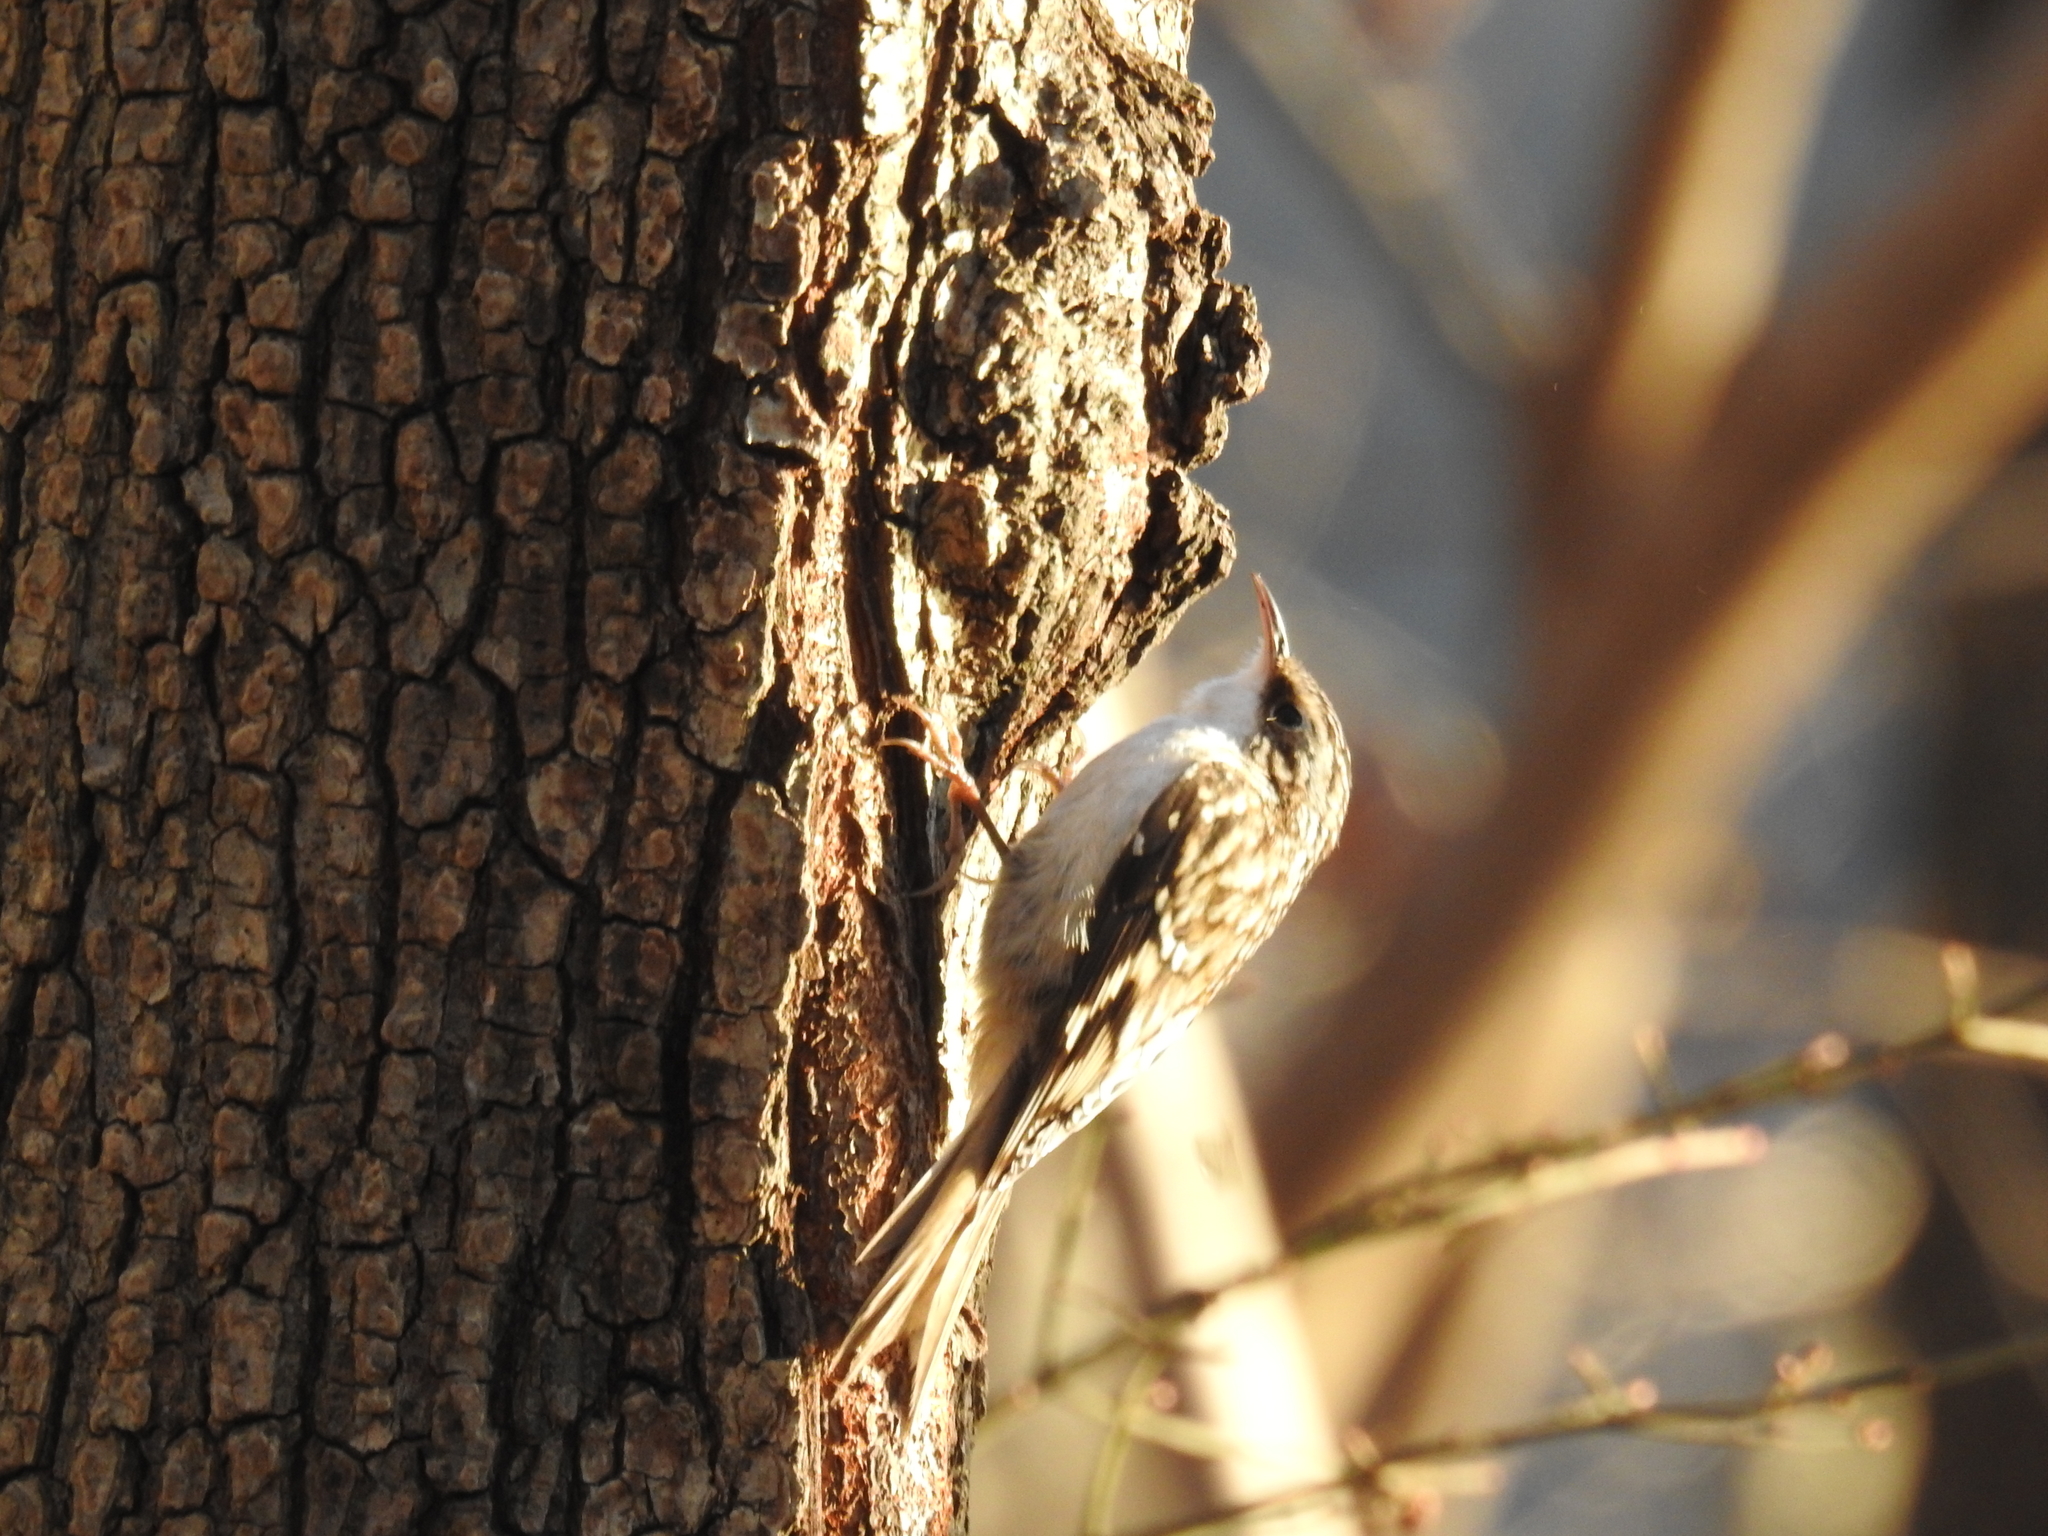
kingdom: Animalia
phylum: Chordata
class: Aves
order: Passeriformes
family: Certhiidae
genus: Certhia
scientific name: Certhia americana
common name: Brown creeper
